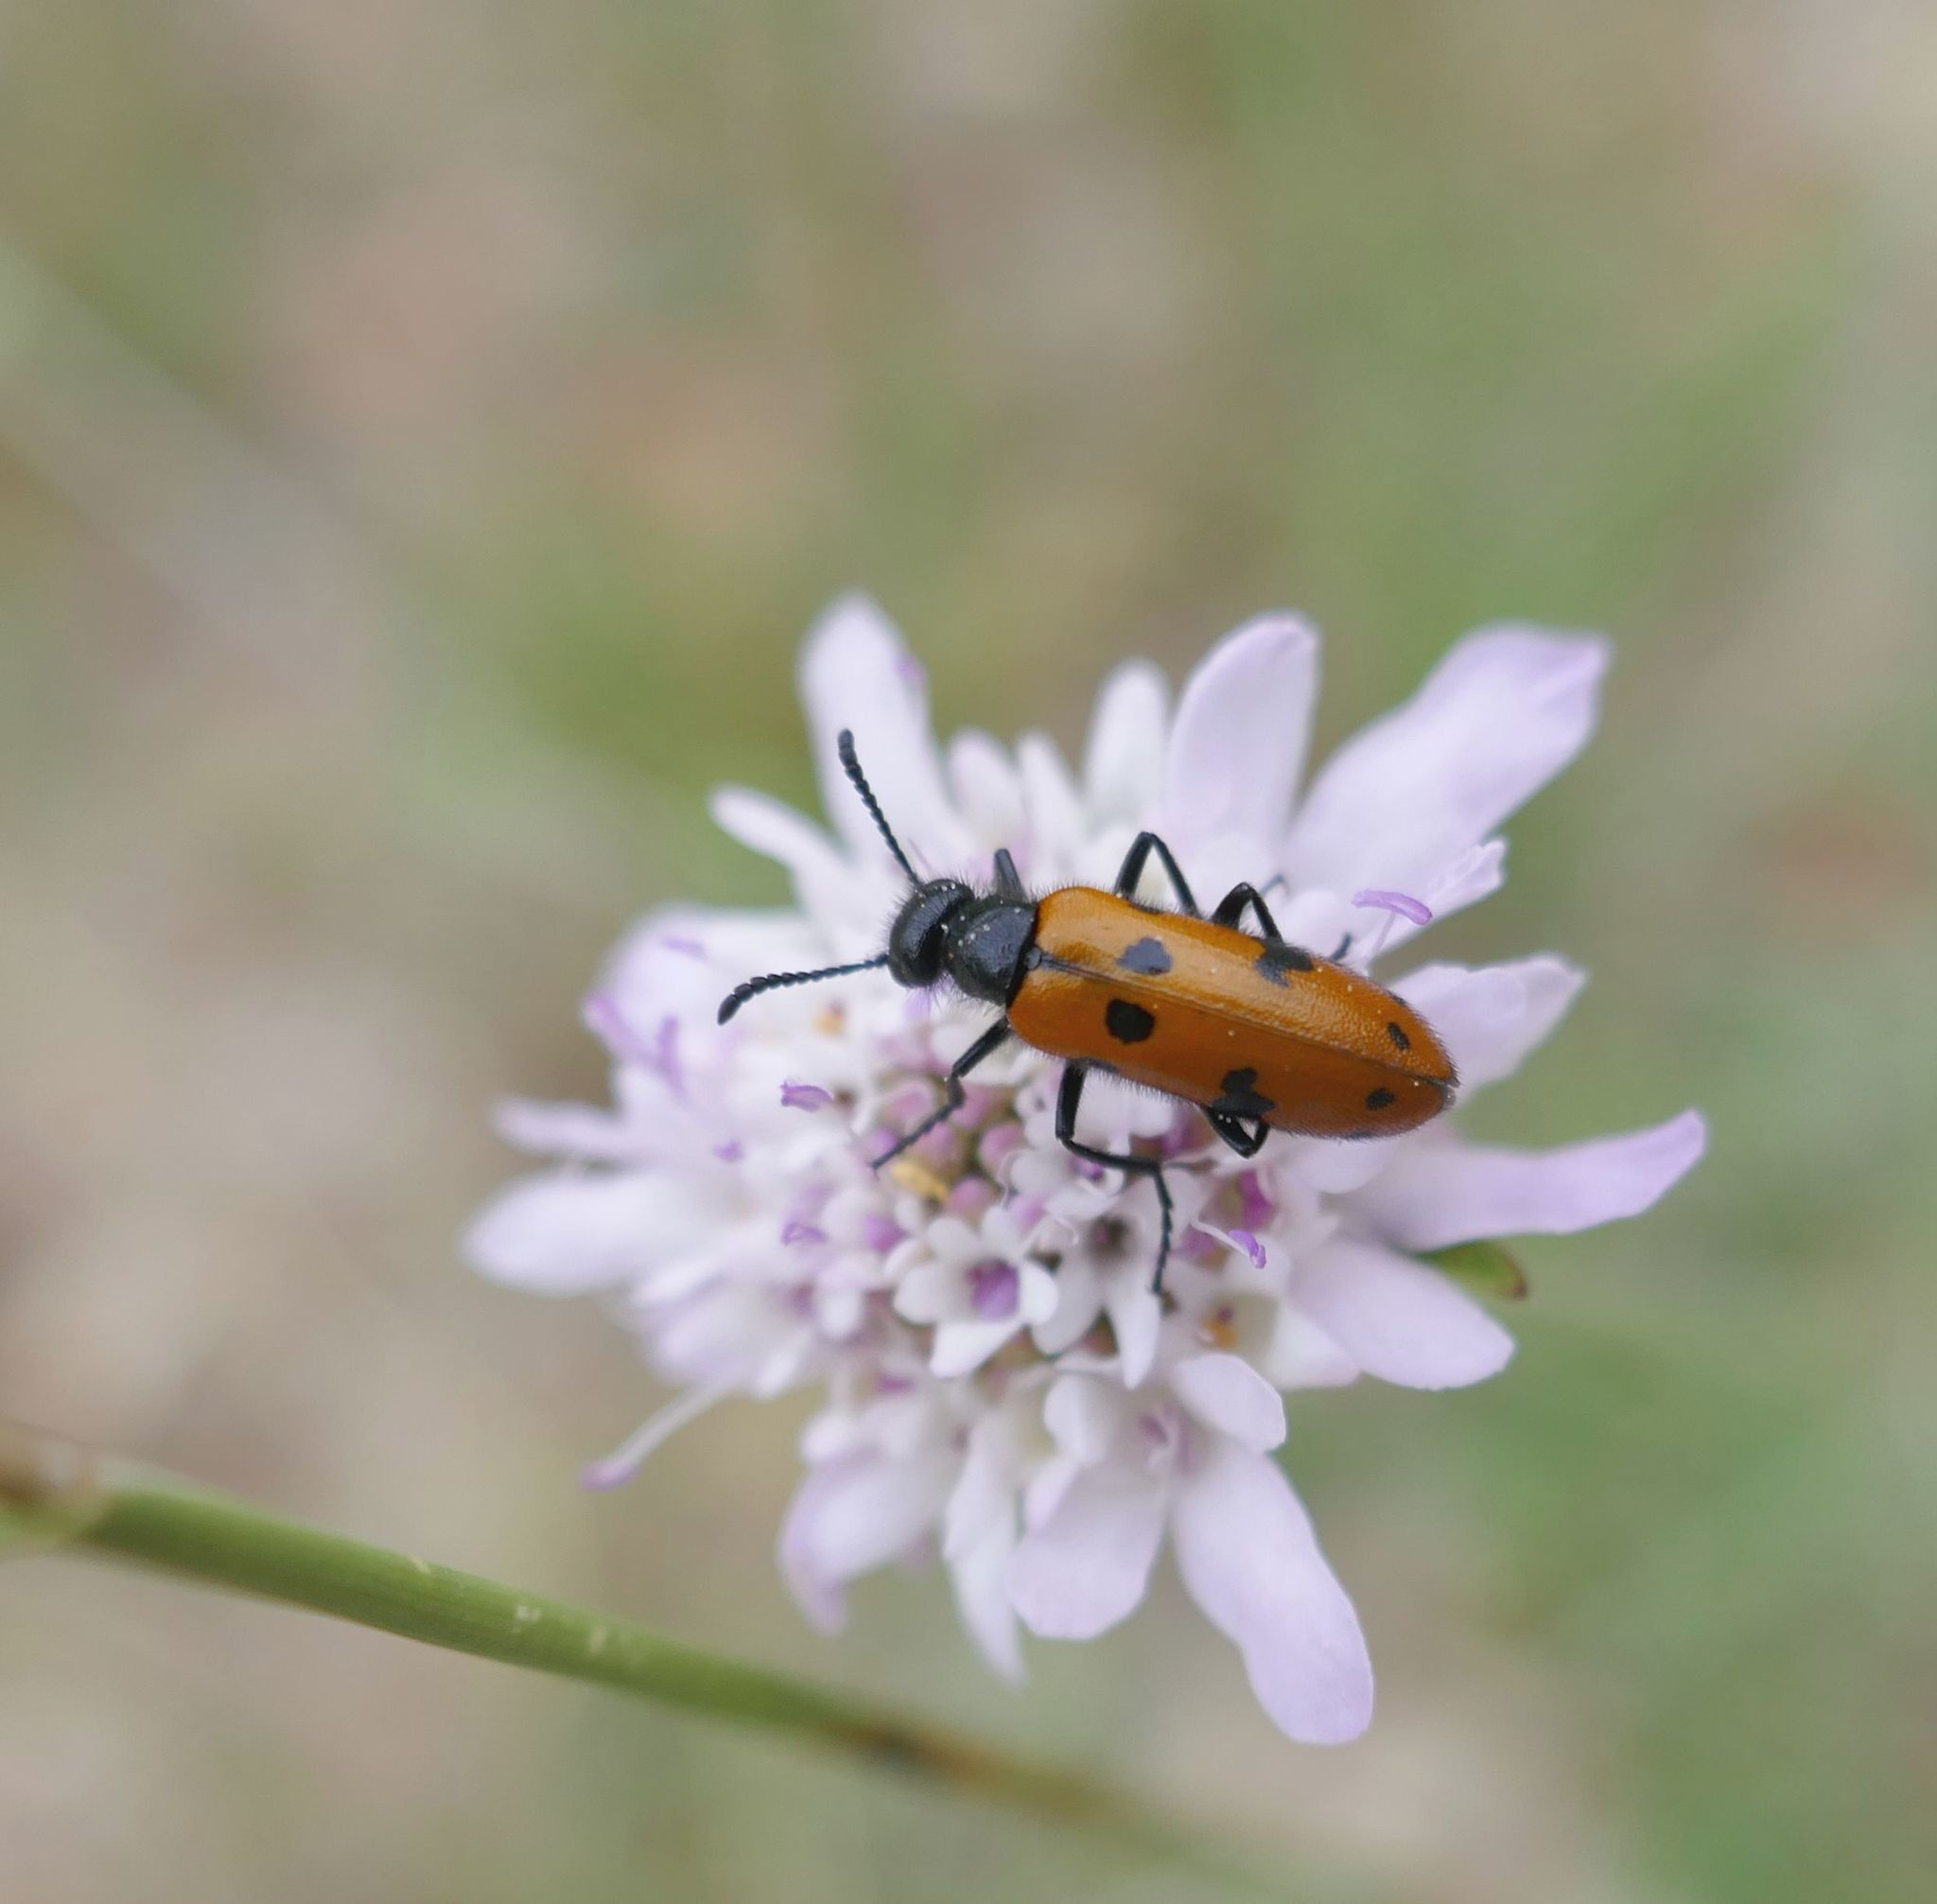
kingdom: Animalia
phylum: Arthropoda
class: Insecta
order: Coleoptera
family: Meloidae
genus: Mylabris
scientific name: Mylabris connata
